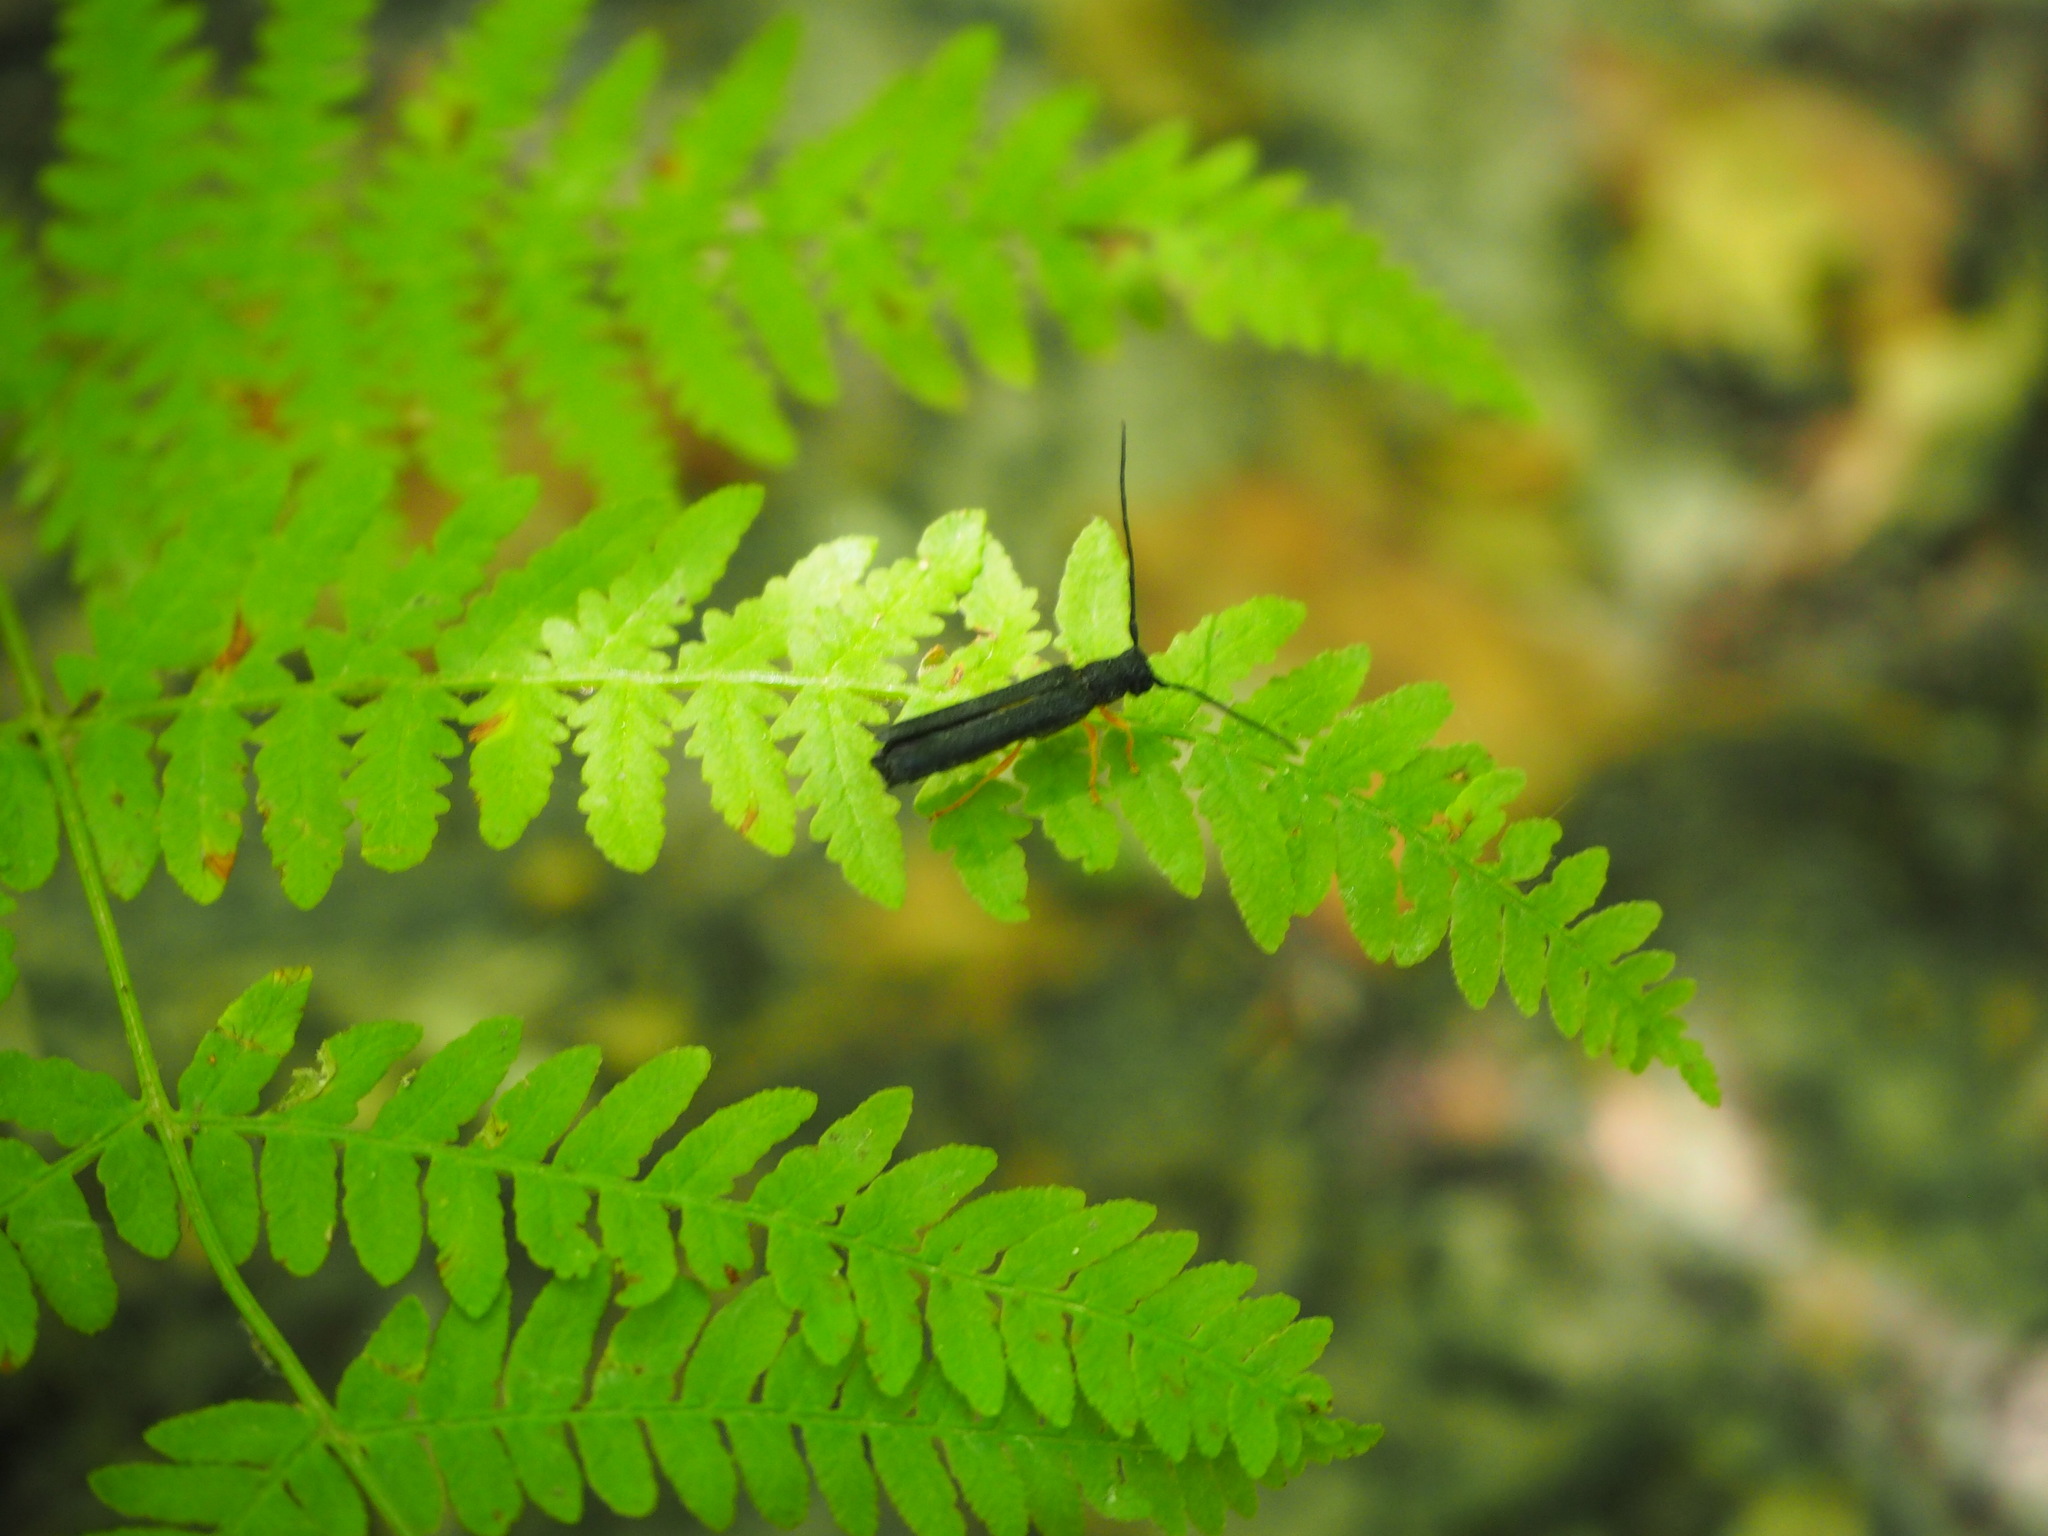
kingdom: Animalia
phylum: Arthropoda
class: Insecta
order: Coleoptera
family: Cerambycidae
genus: Oberea
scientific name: Oberea linearis
